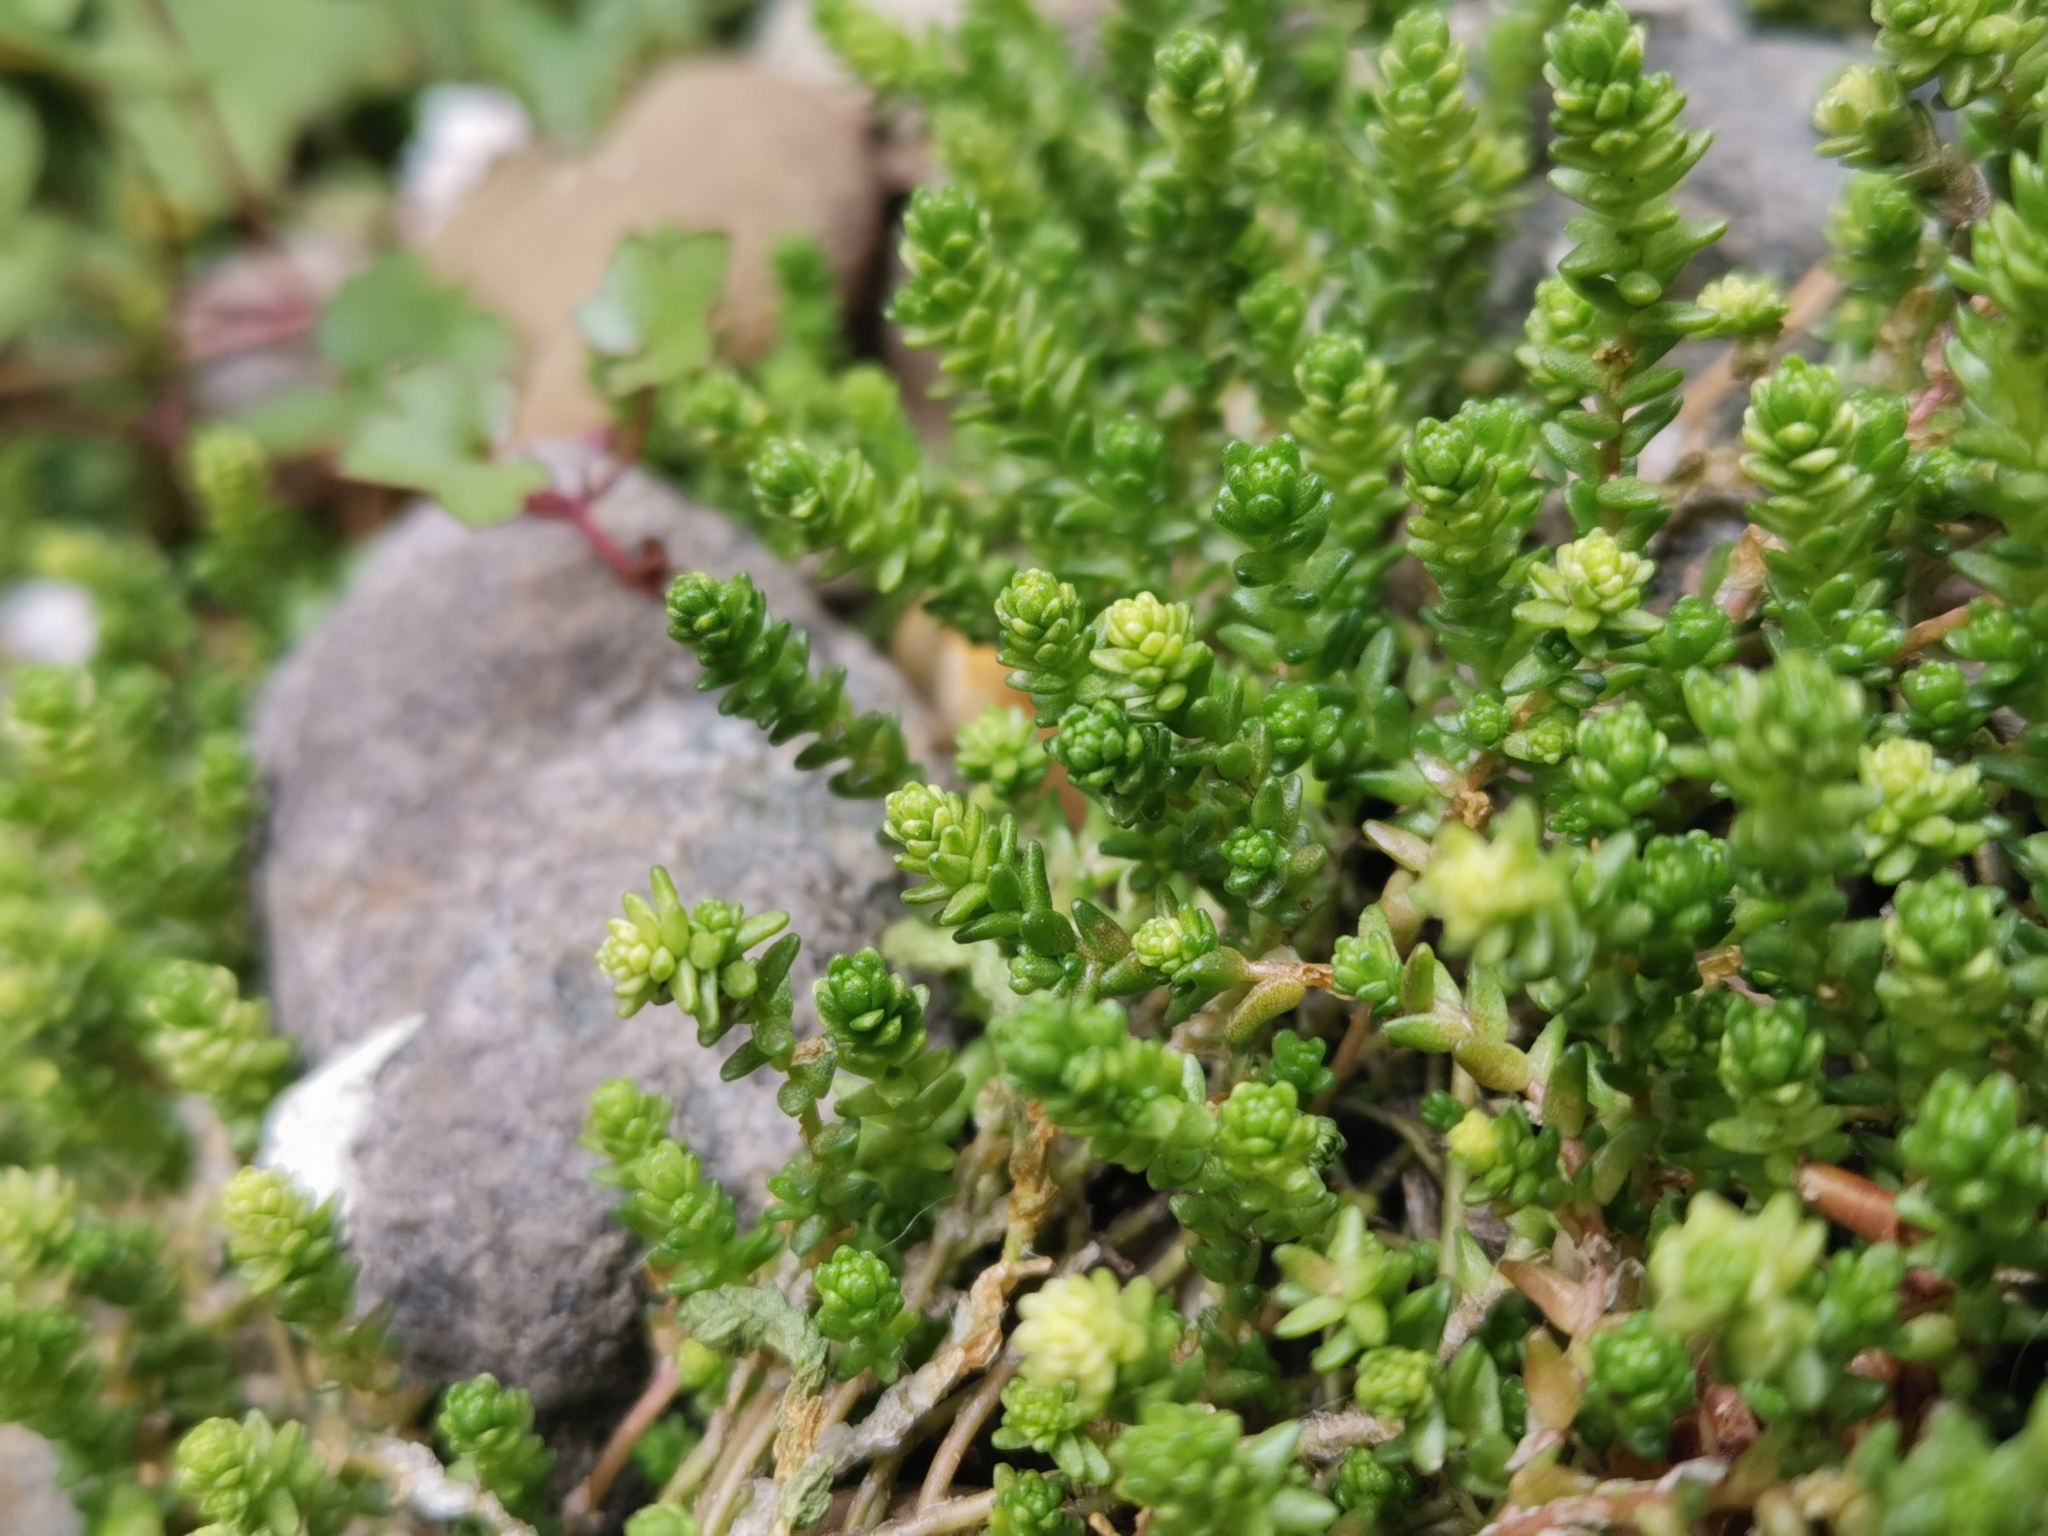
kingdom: Plantae
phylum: Tracheophyta
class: Magnoliopsida
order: Saxifragales
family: Crassulaceae
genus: Sedum
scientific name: Sedum acre
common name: Biting stonecrop
